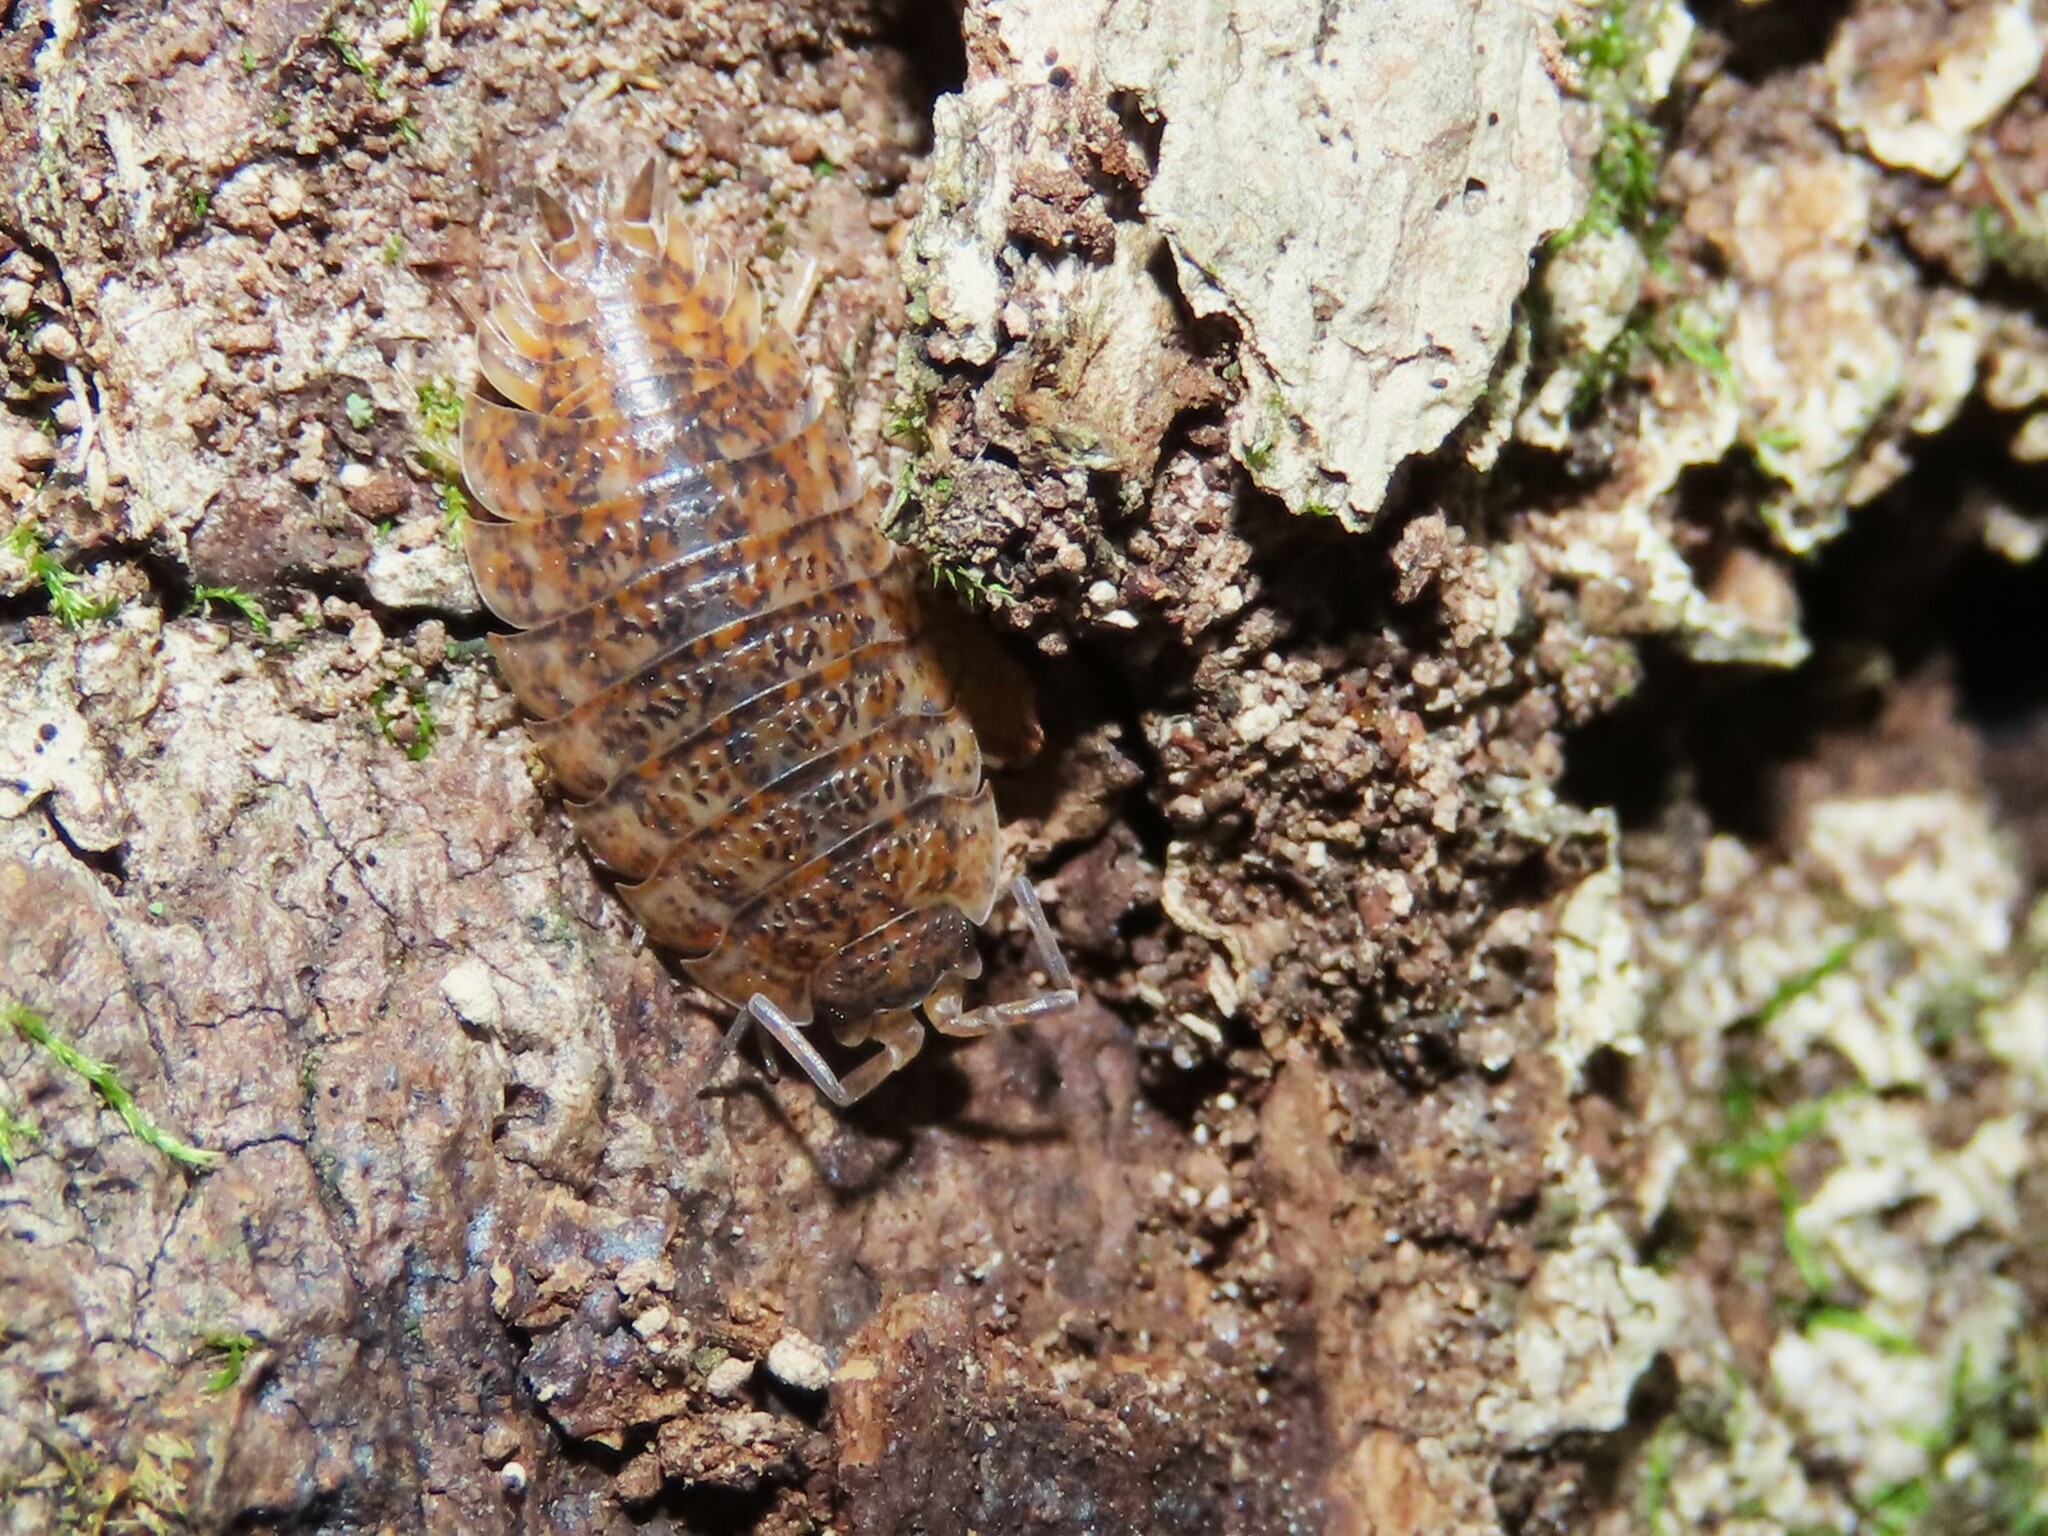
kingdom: Animalia
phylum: Arthropoda
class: Malacostraca
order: Isopoda
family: Trachelipodidae
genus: Trachelipus
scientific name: Trachelipus rathkii
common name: Isopod
